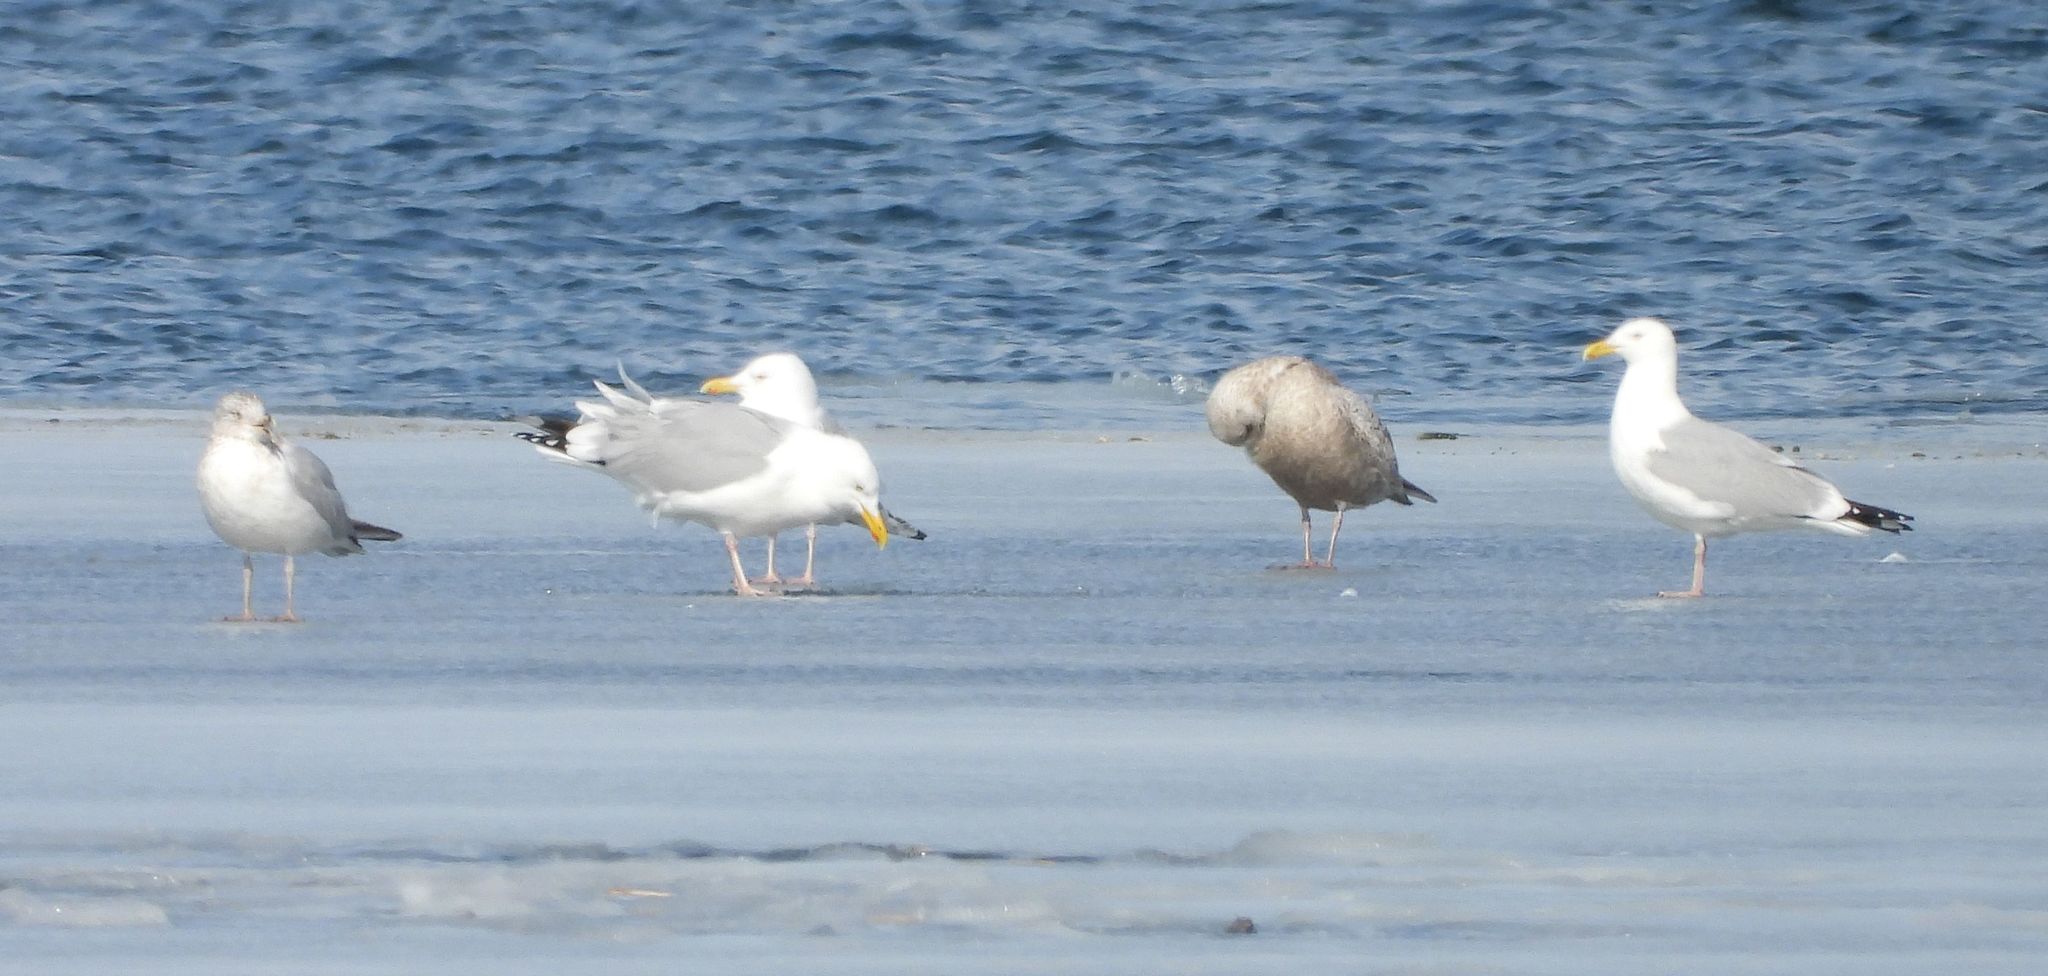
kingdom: Animalia
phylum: Chordata
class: Aves
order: Charadriiformes
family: Laridae
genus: Larus
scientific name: Larus argentatus
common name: Herring gull
